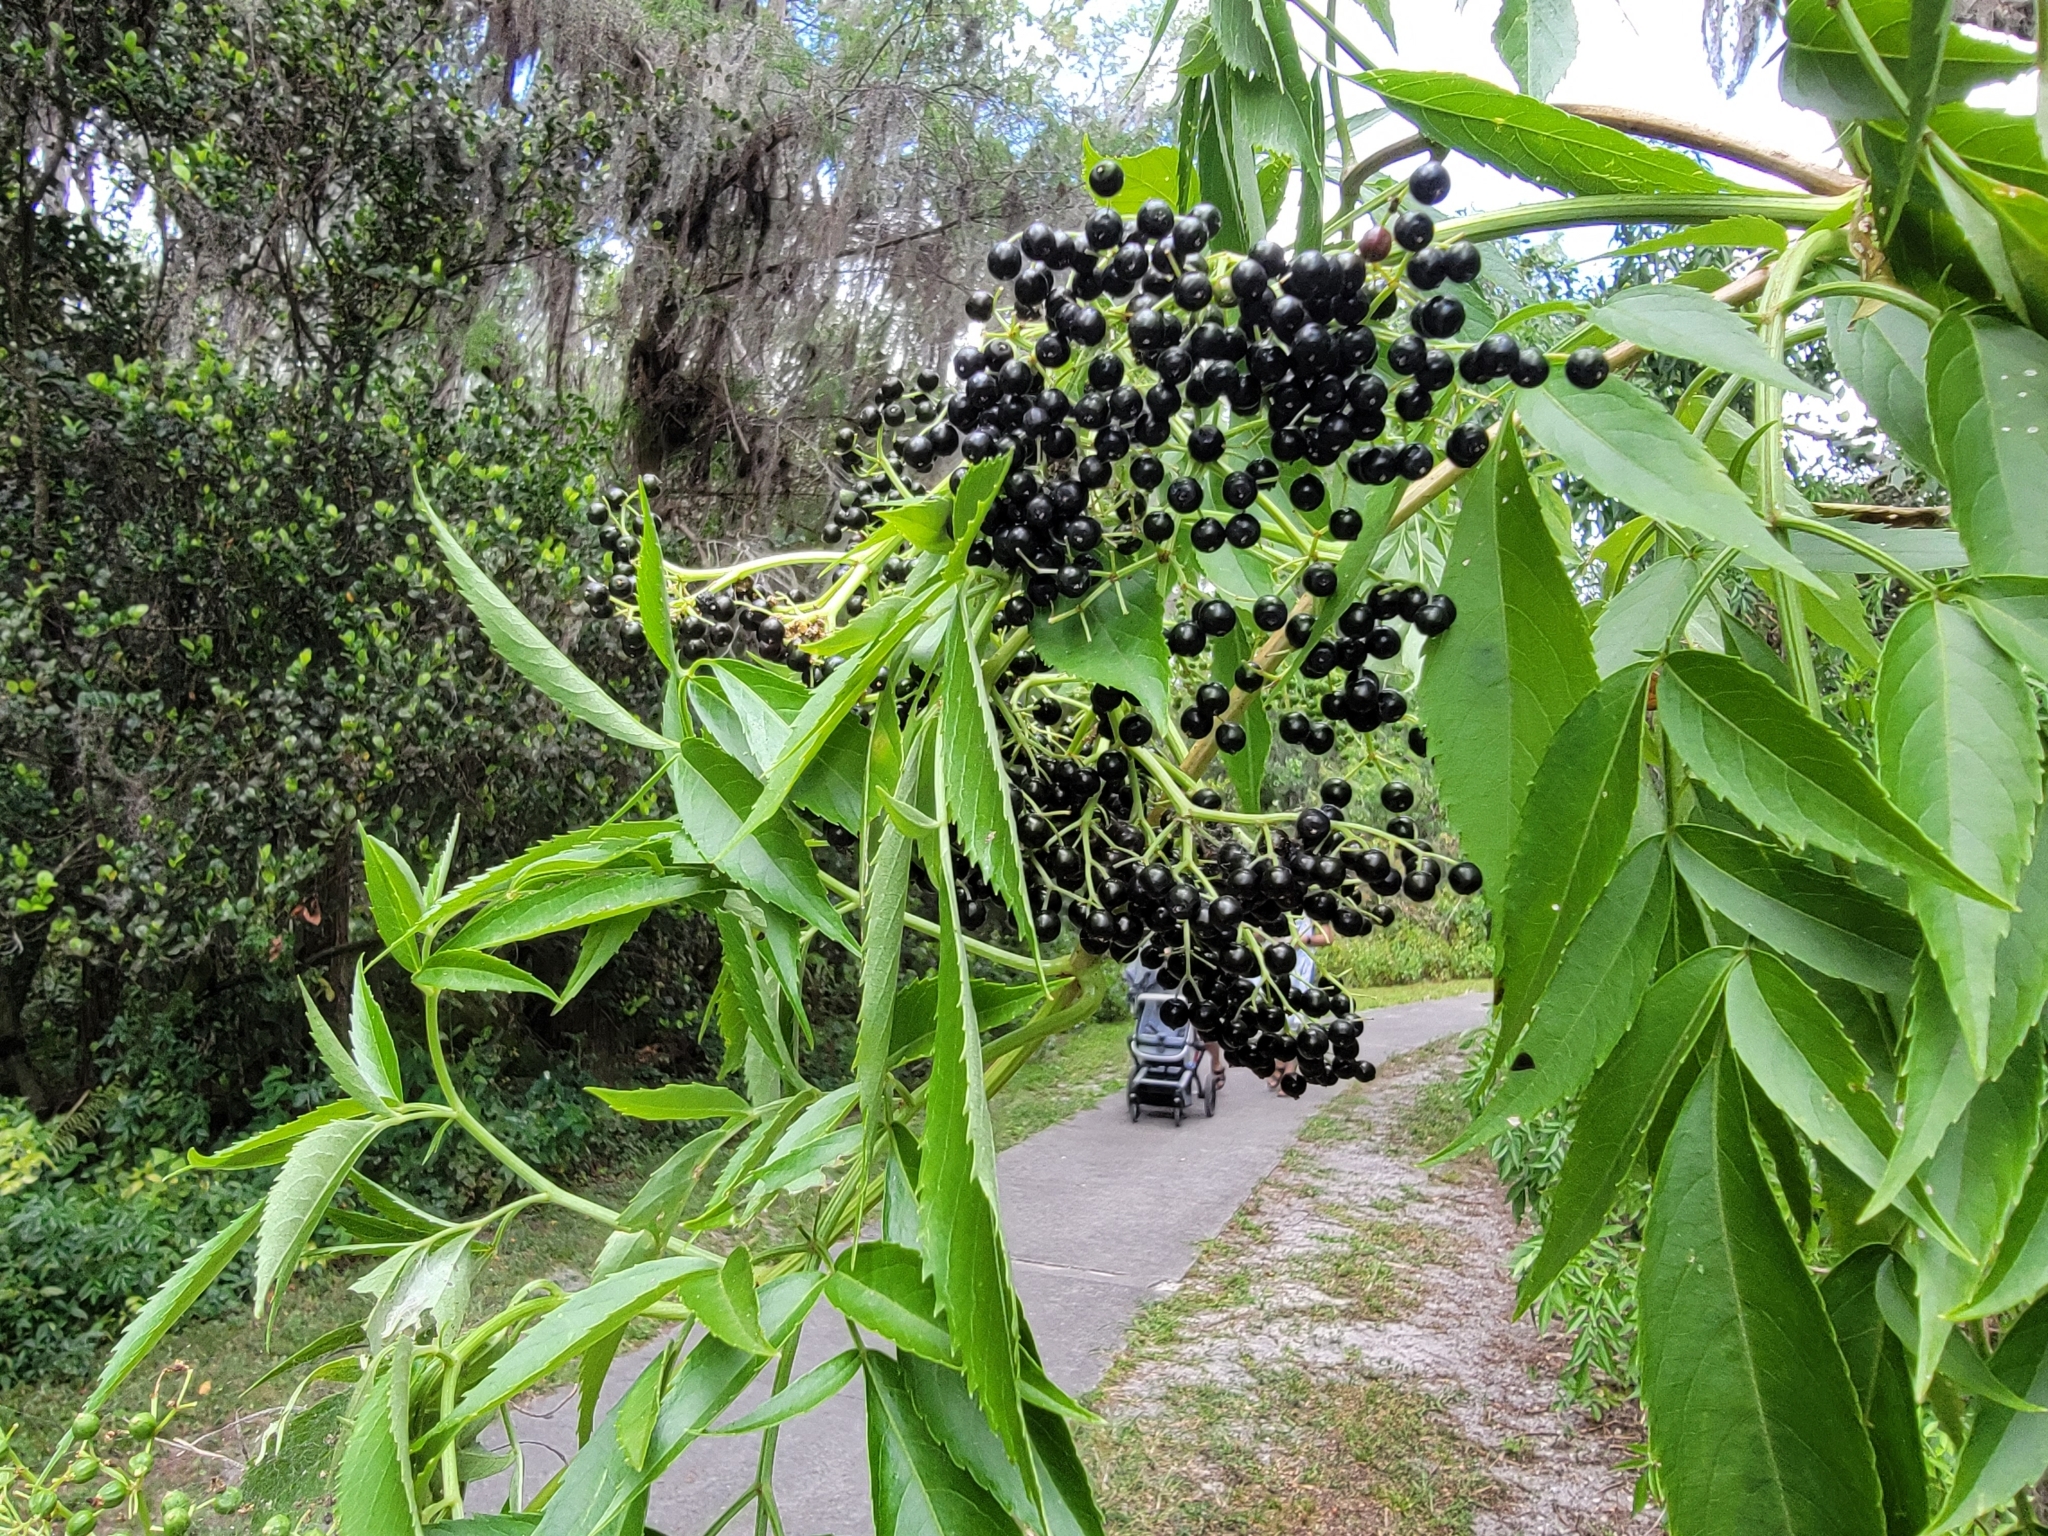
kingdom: Plantae
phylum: Tracheophyta
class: Magnoliopsida
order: Dipsacales
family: Viburnaceae
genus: Sambucus
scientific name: Sambucus canadensis
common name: American elder
